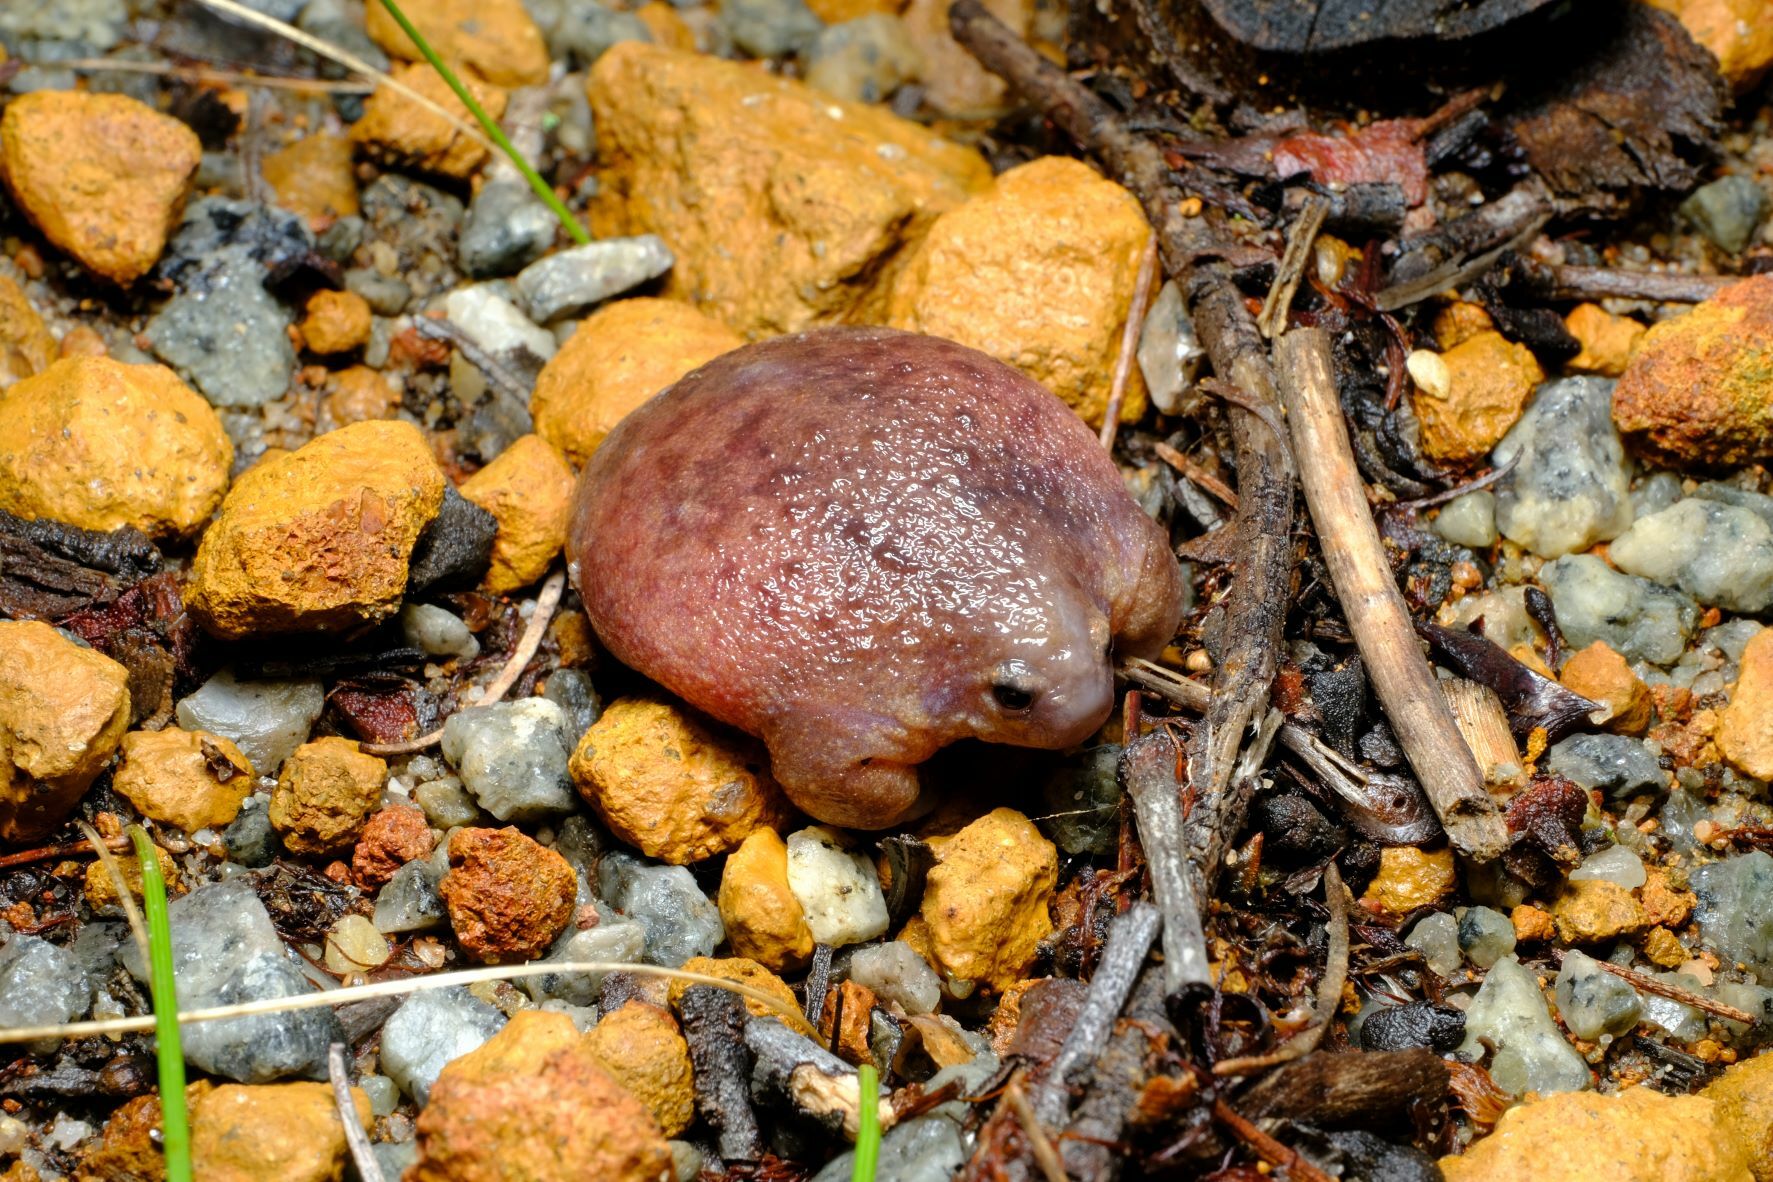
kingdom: Animalia
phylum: Chordata
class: Amphibia
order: Anura
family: Myobatrachidae
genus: Myobatrachus
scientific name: Myobatrachus gouldii
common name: Turtle frog
